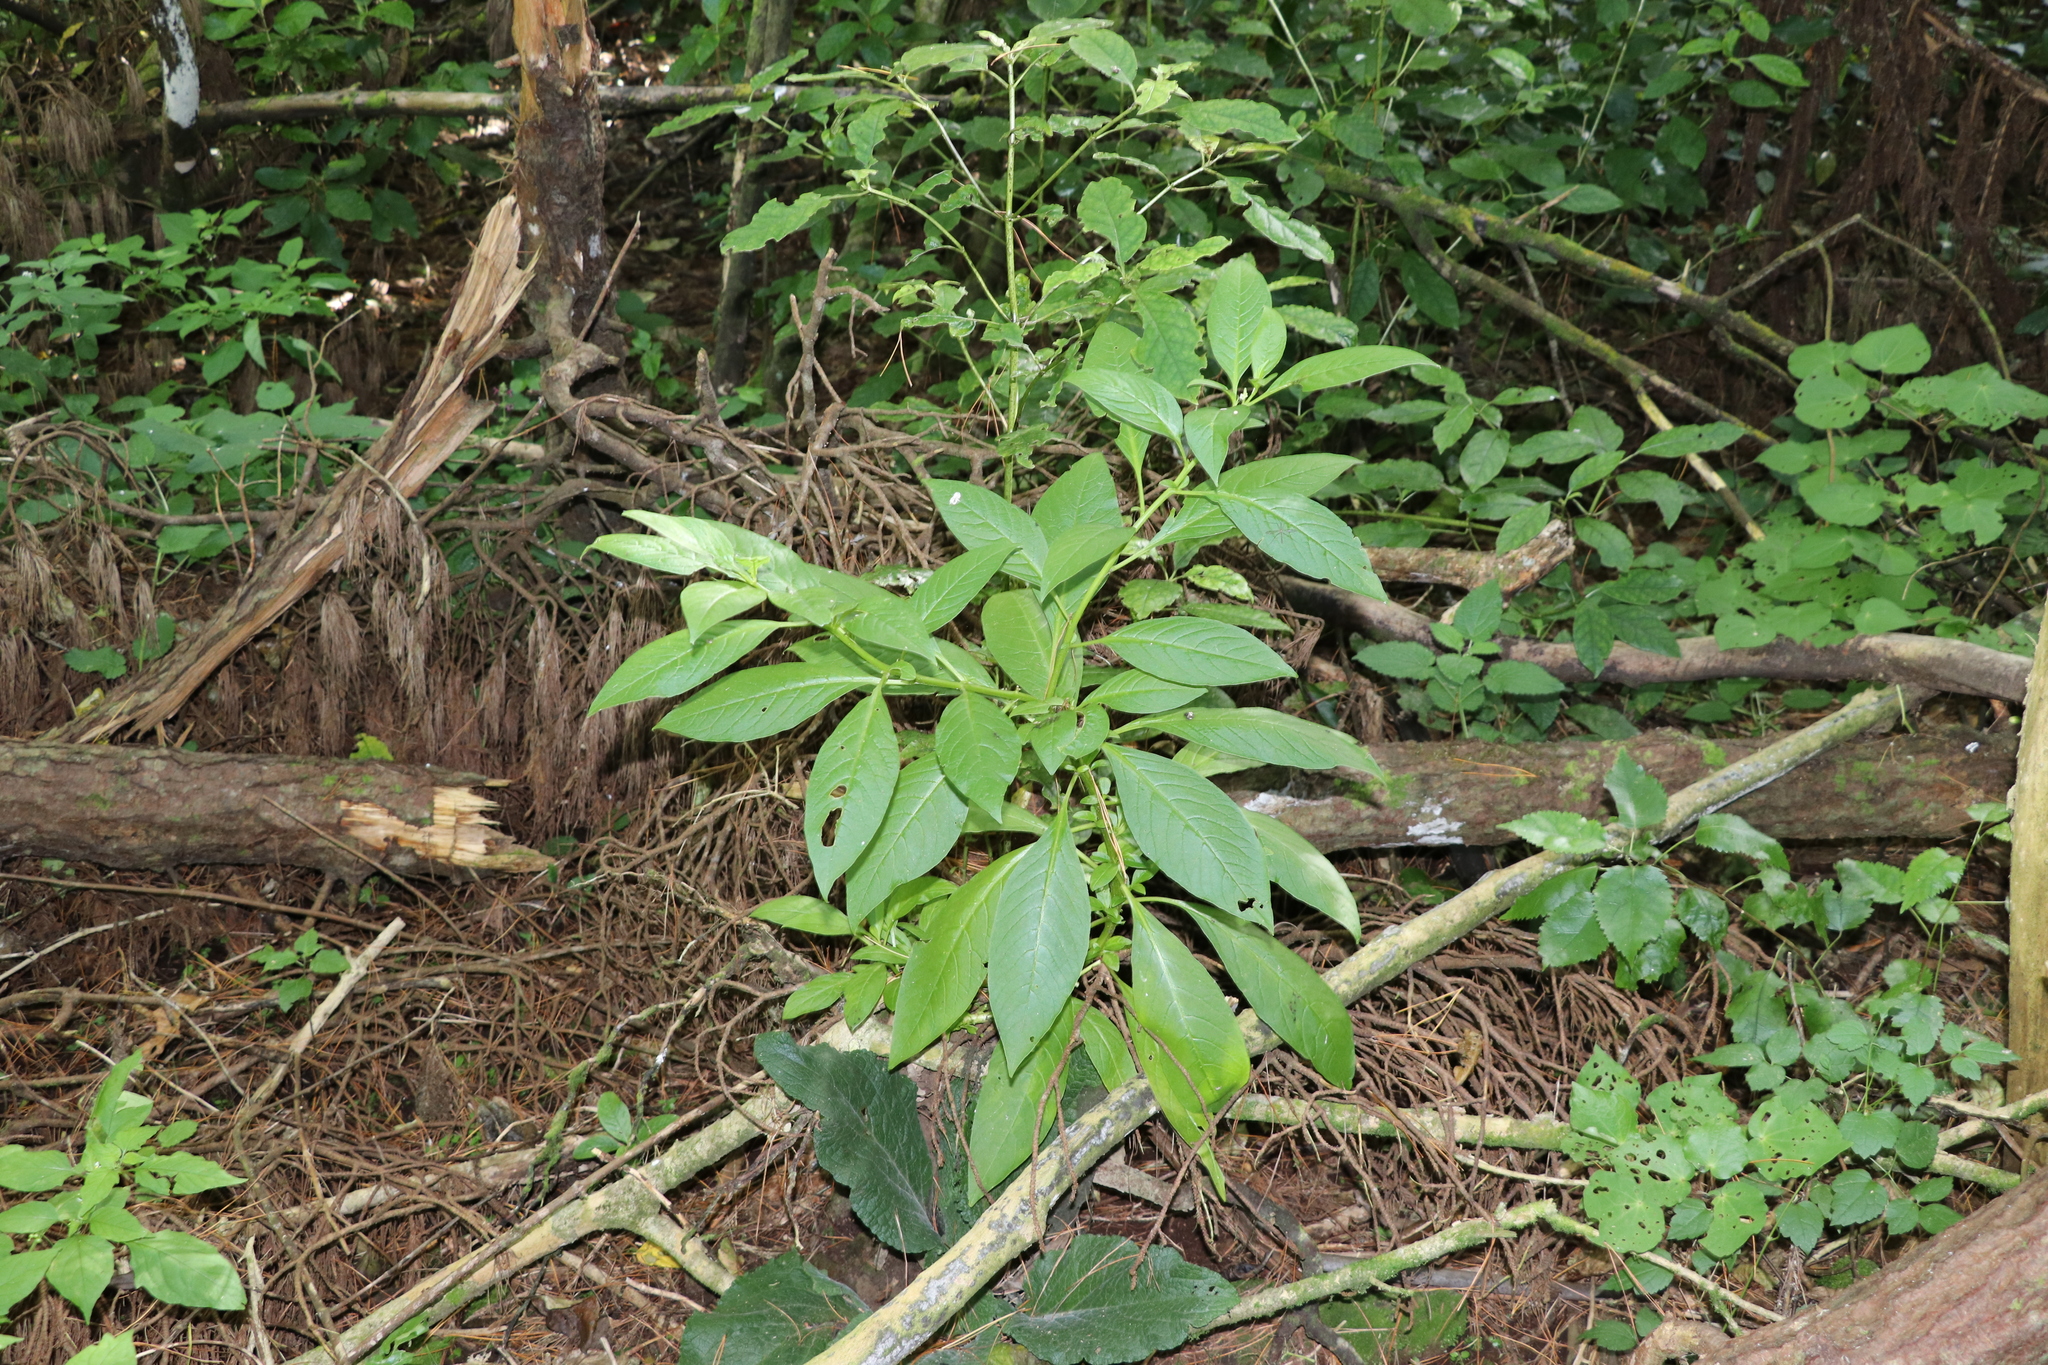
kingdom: Plantae
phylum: Tracheophyta
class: Magnoliopsida
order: Caryophyllales
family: Phytolaccaceae
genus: Phytolacca
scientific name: Phytolacca icosandra
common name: Button pokeweed
